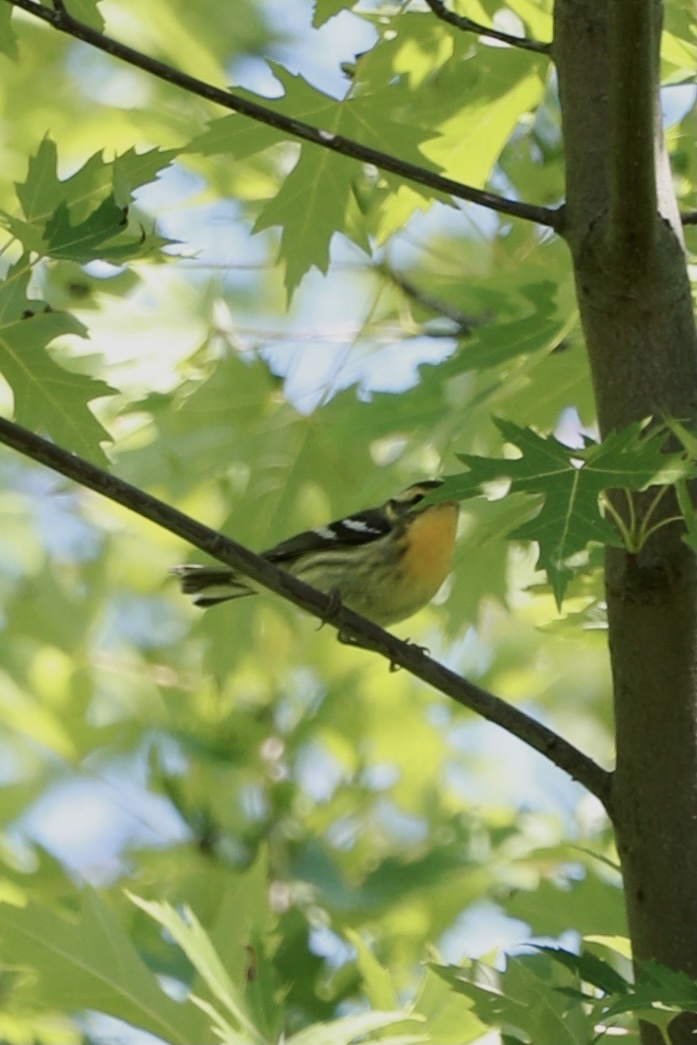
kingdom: Animalia
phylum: Chordata
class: Aves
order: Passeriformes
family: Parulidae
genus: Setophaga
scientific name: Setophaga fusca
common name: Blackburnian warbler
